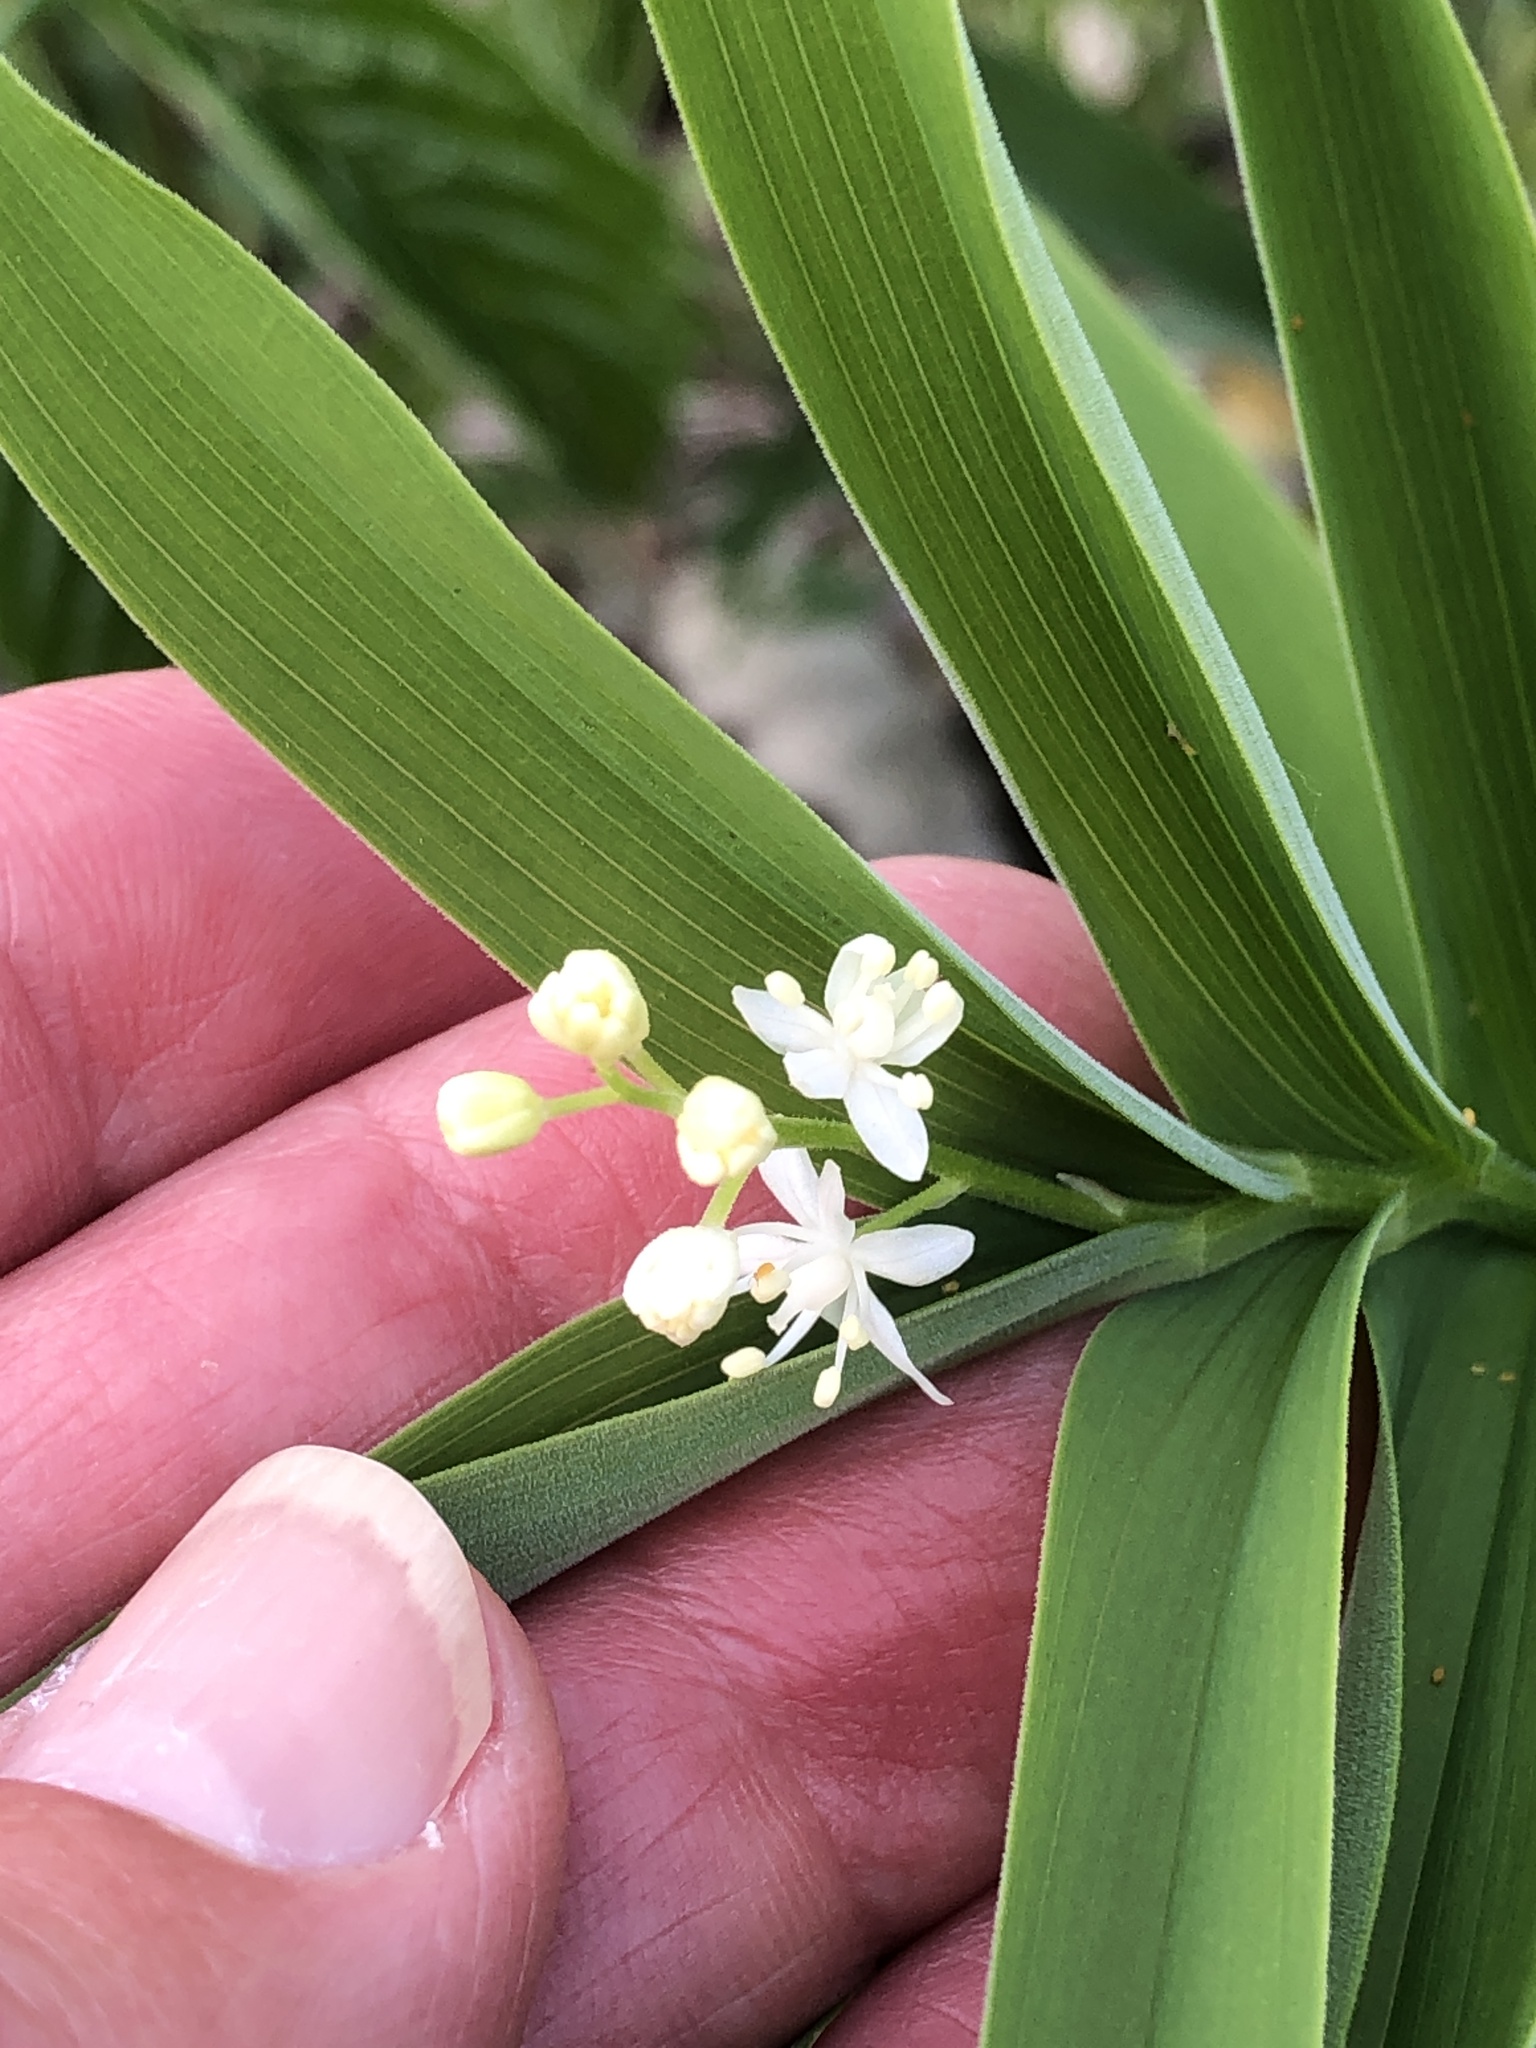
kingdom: Plantae
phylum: Tracheophyta
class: Liliopsida
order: Asparagales
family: Asparagaceae
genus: Maianthemum
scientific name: Maianthemum stellatum
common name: Little false solomon's seal
